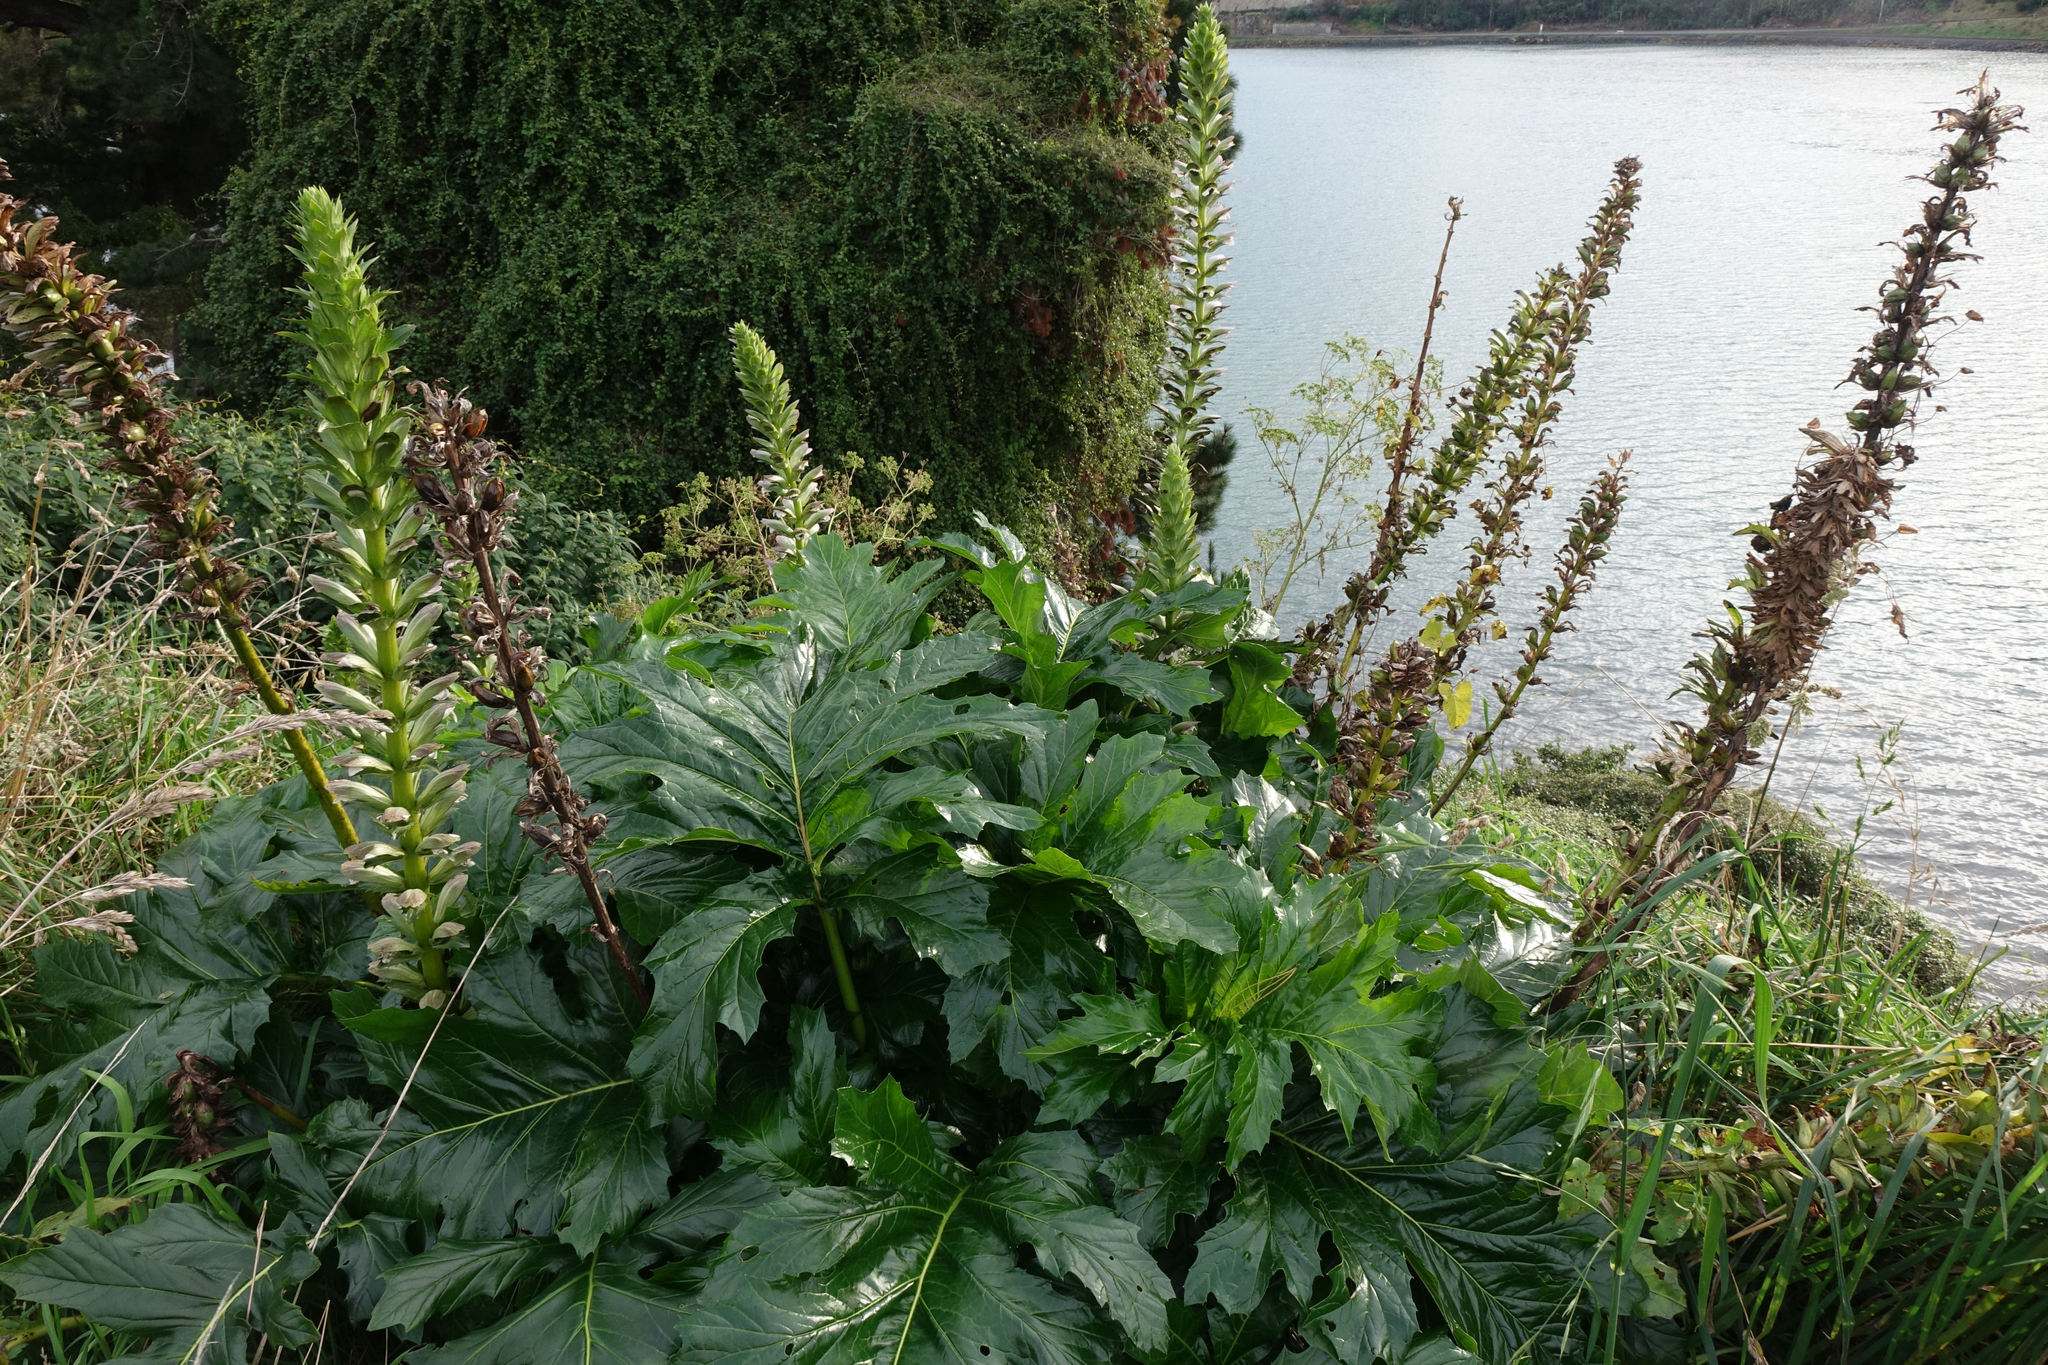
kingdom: Plantae
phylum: Tracheophyta
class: Magnoliopsida
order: Lamiales
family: Acanthaceae
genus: Acanthus
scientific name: Acanthus mollis
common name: Bear's-breech
